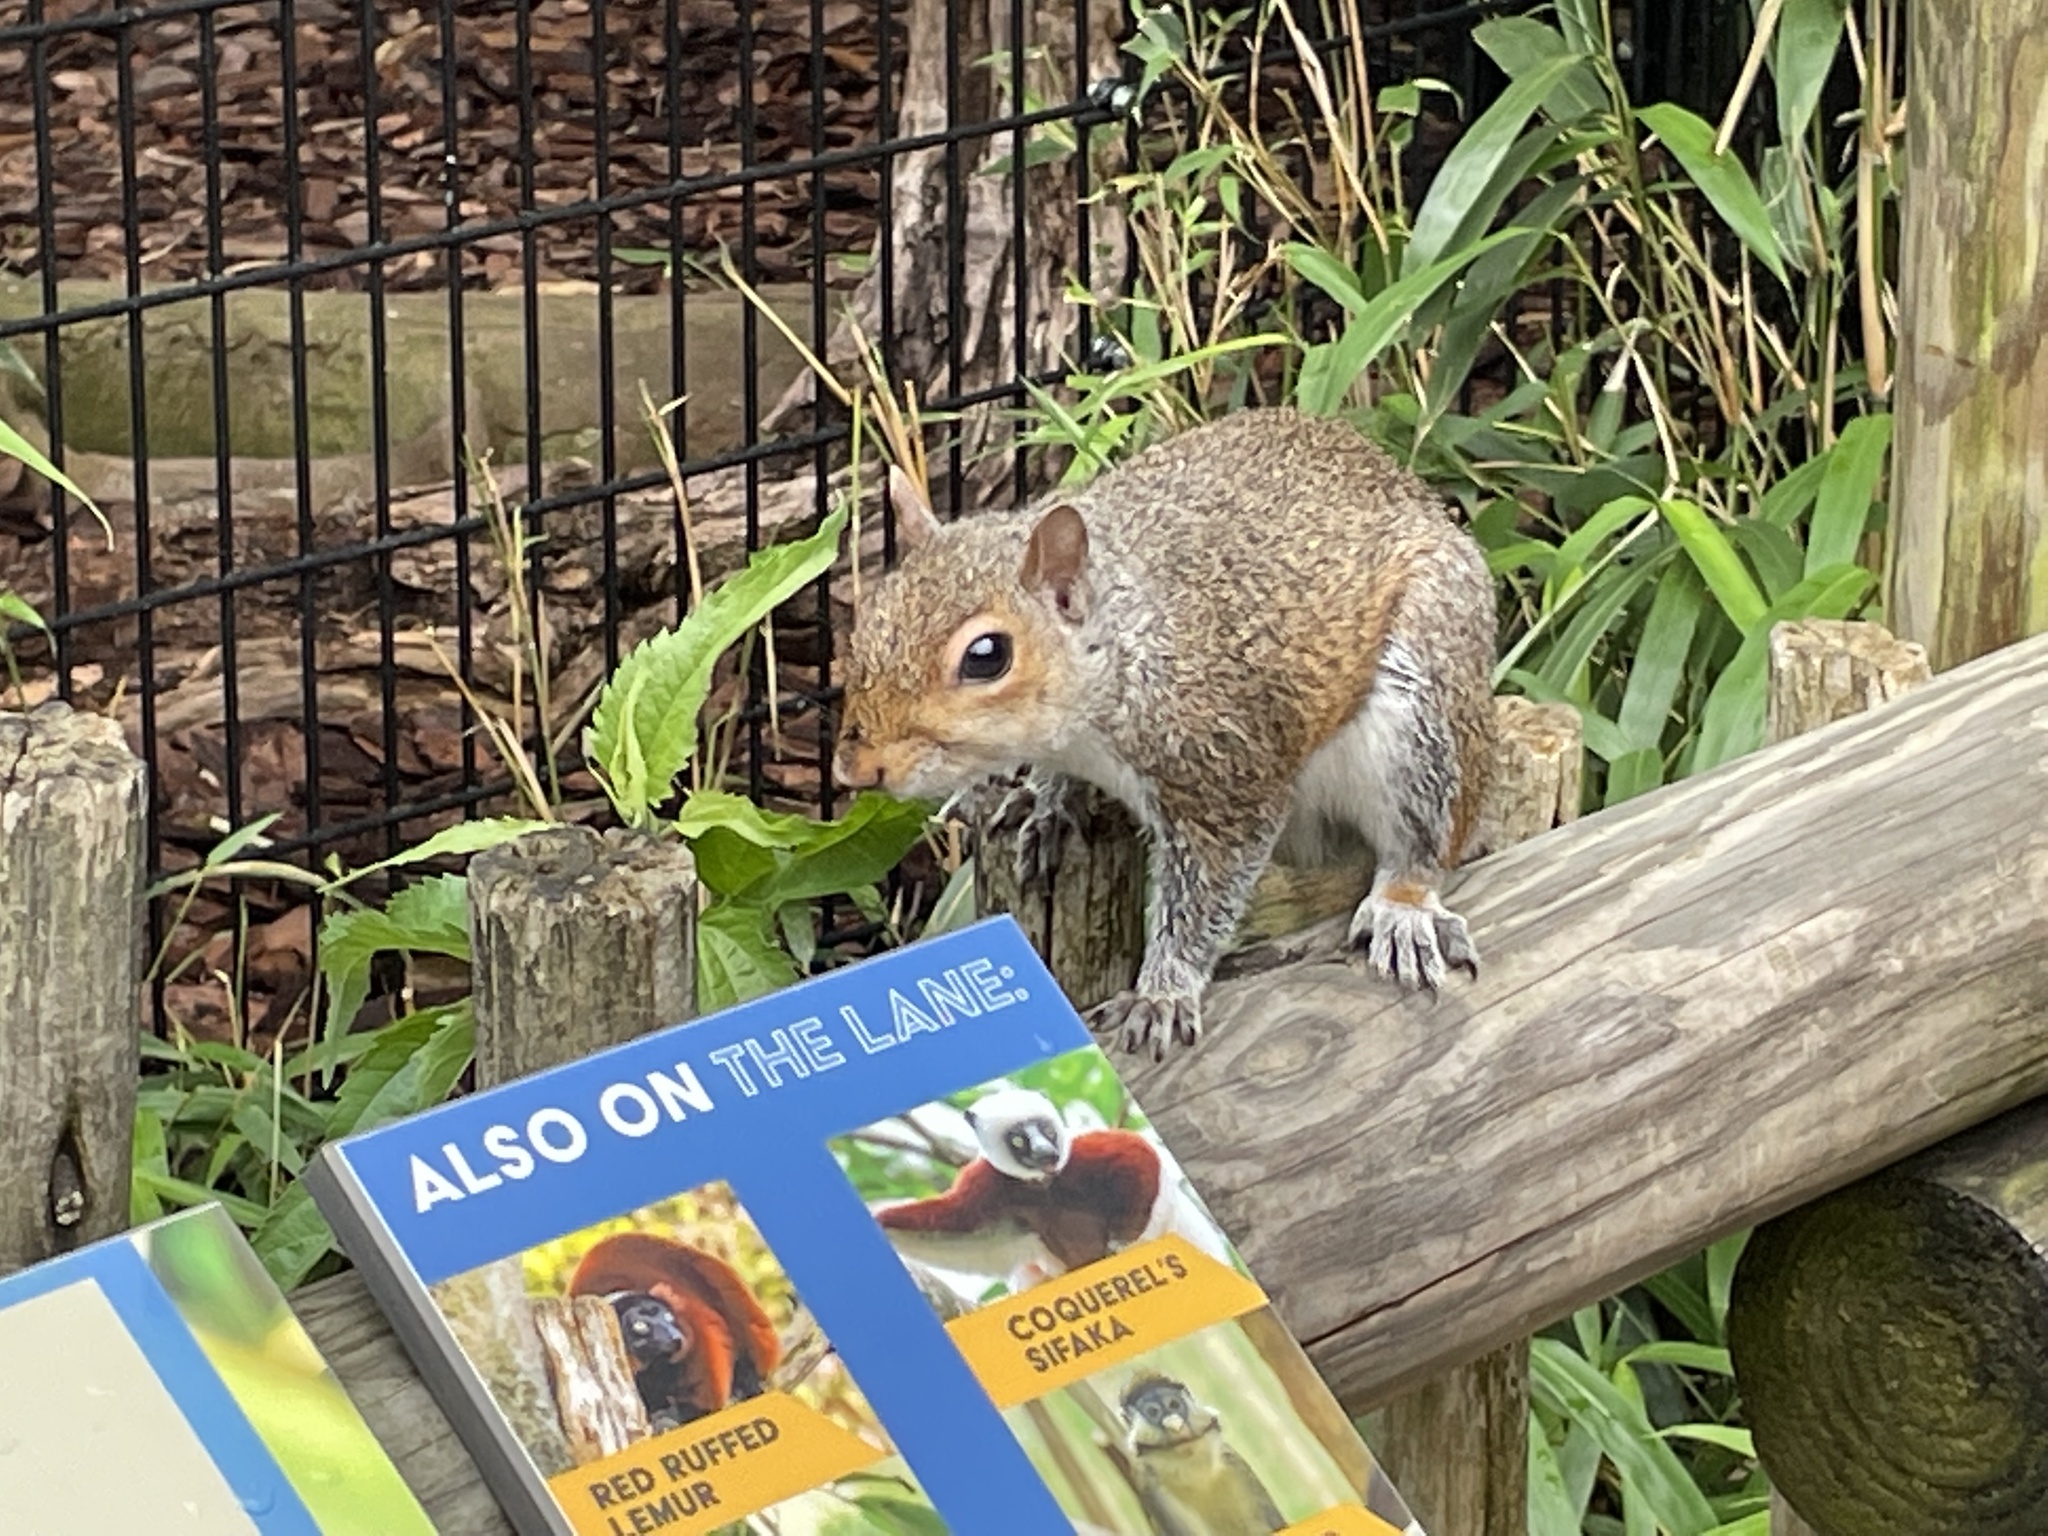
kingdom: Animalia
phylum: Chordata
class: Mammalia
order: Rodentia
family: Sciuridae
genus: Sciurus
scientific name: Sciurus carolinensis
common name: Eastern gray squirrel
